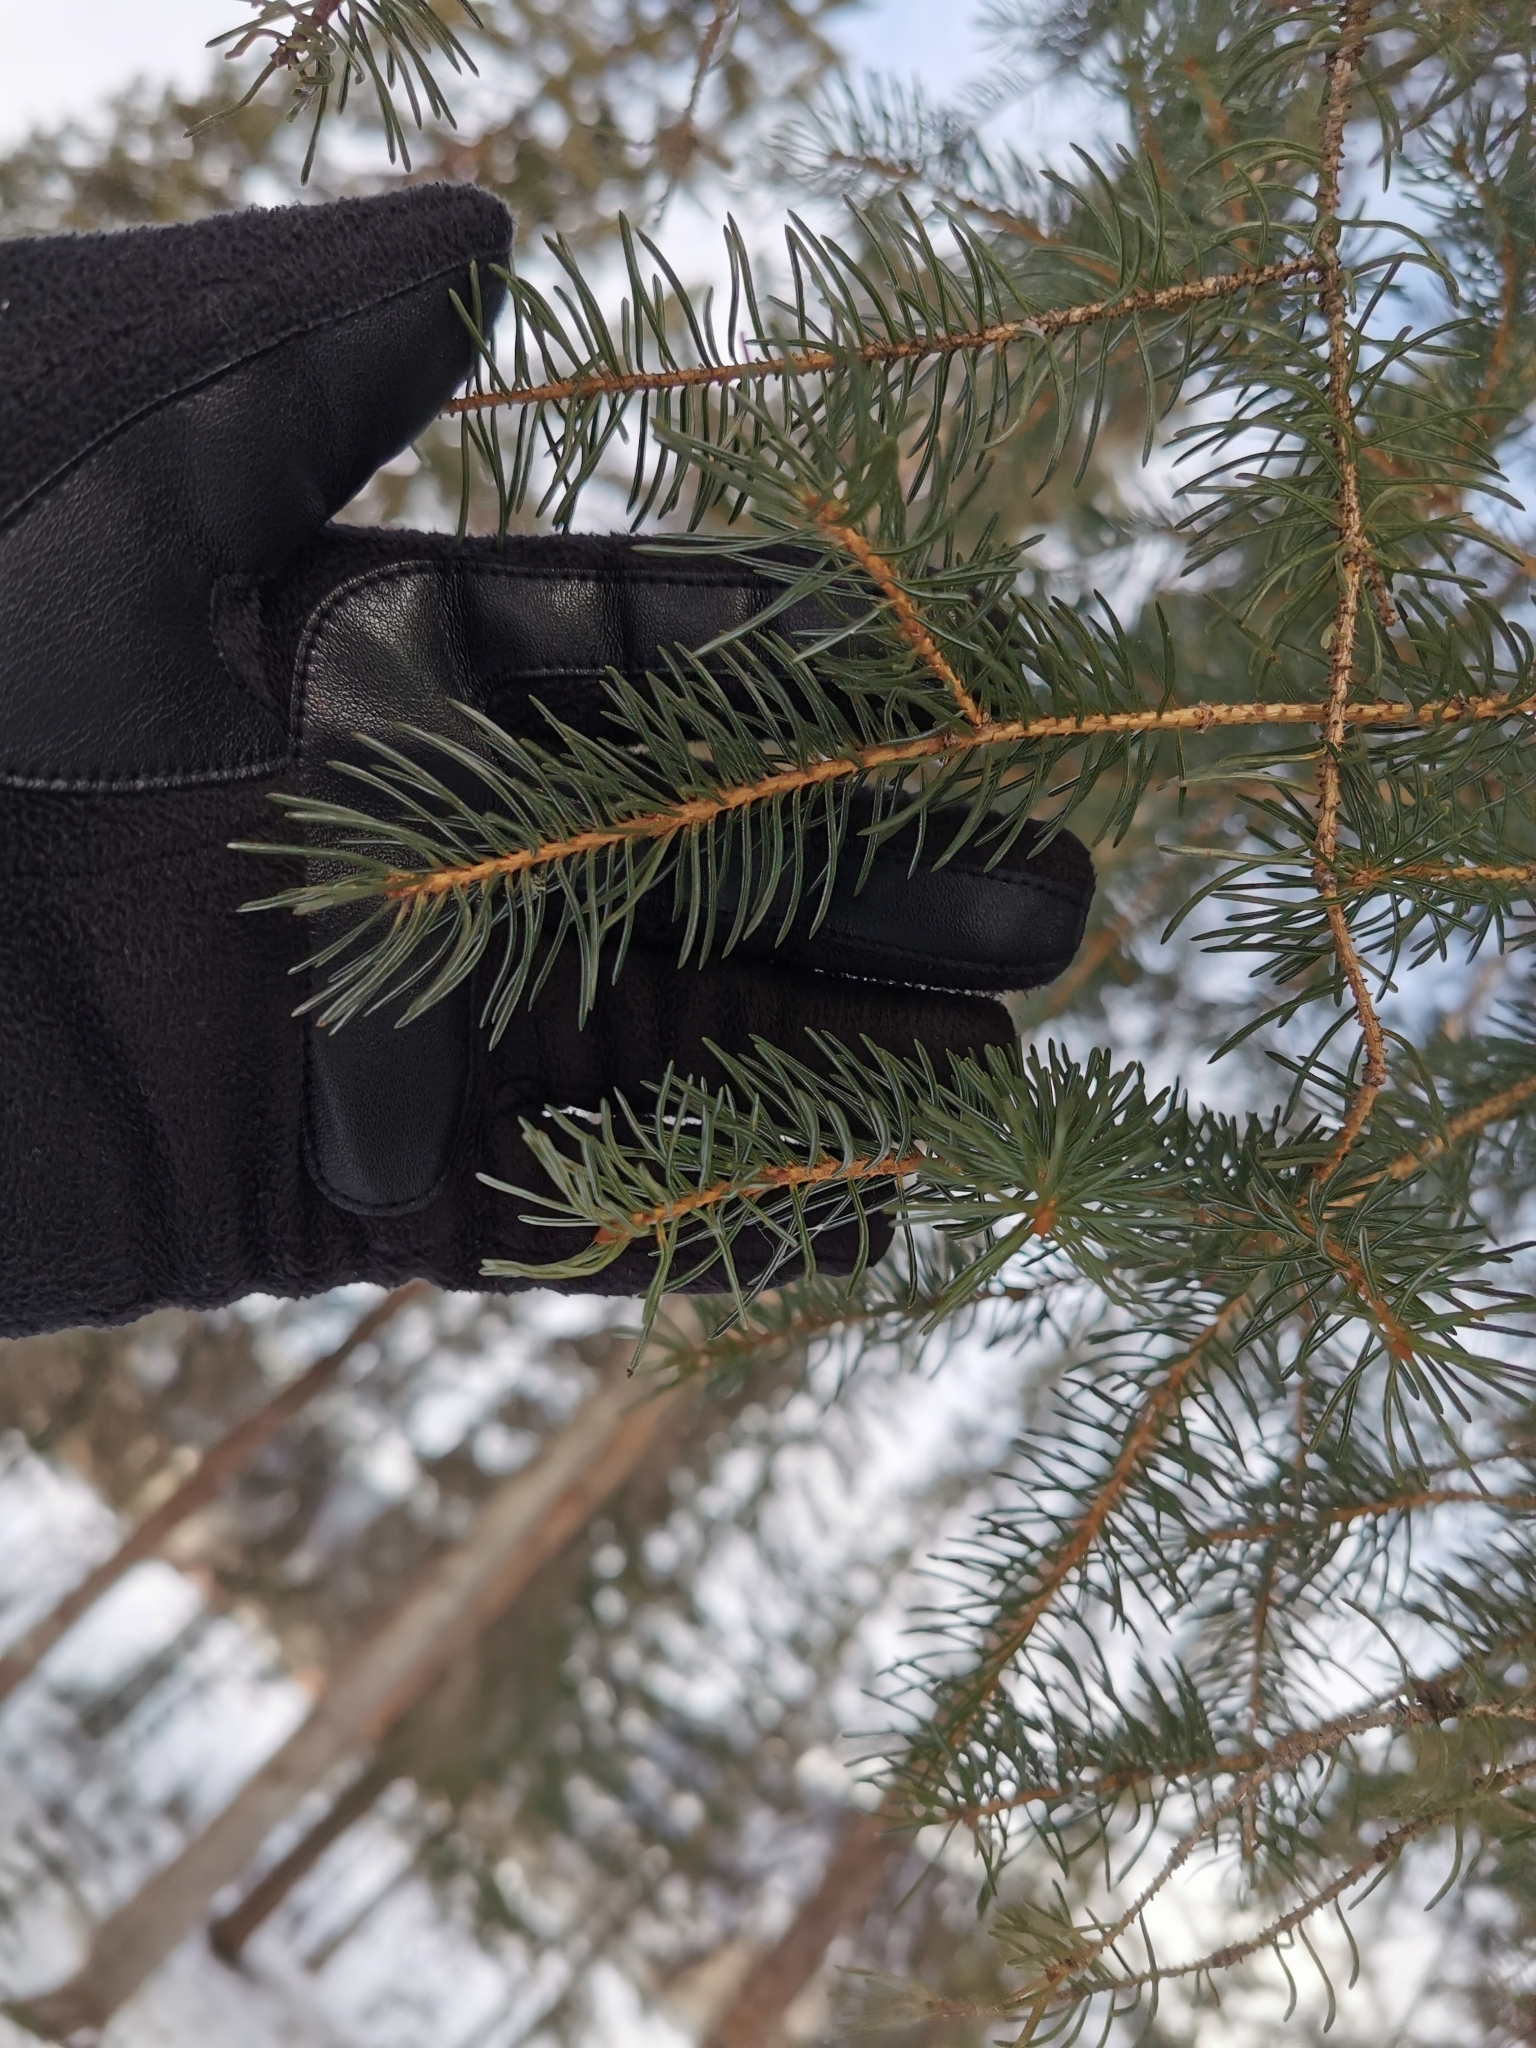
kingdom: Plantae
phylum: Tracheophyta
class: Pinopsida
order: Pinales
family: Pinaceae
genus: Picea
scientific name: Picea glauca
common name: White spruce
